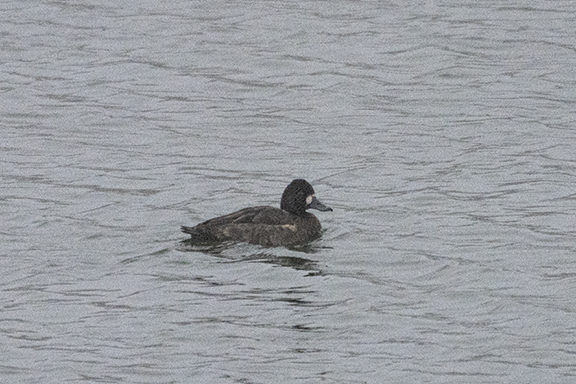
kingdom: Animalia
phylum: Chordata
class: Aves
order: Anseriformes
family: Anatidae
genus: Aythya
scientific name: Aythya affinis
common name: Lesser scaup
